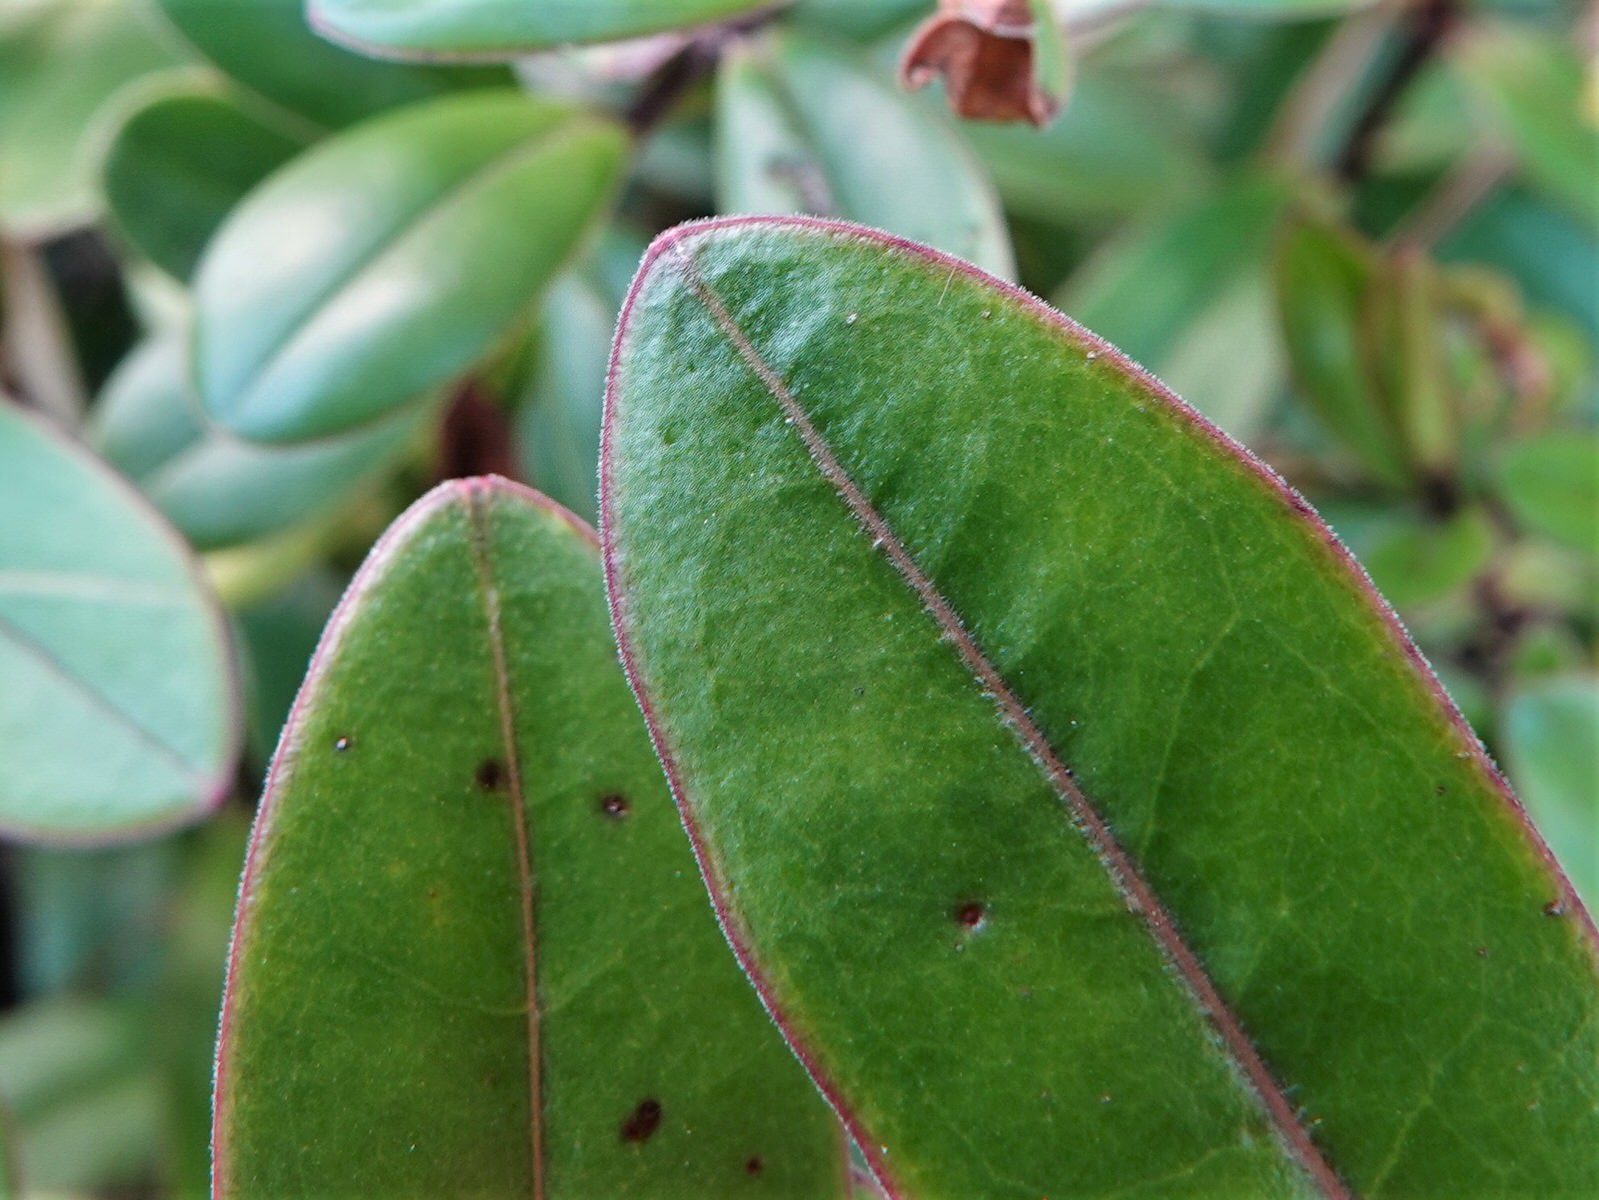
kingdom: Plantae
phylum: Tracheophyta
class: Magnoliopsida
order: Lamiales
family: Plantaginaceae
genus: Veronica
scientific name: Veronica obtusata
